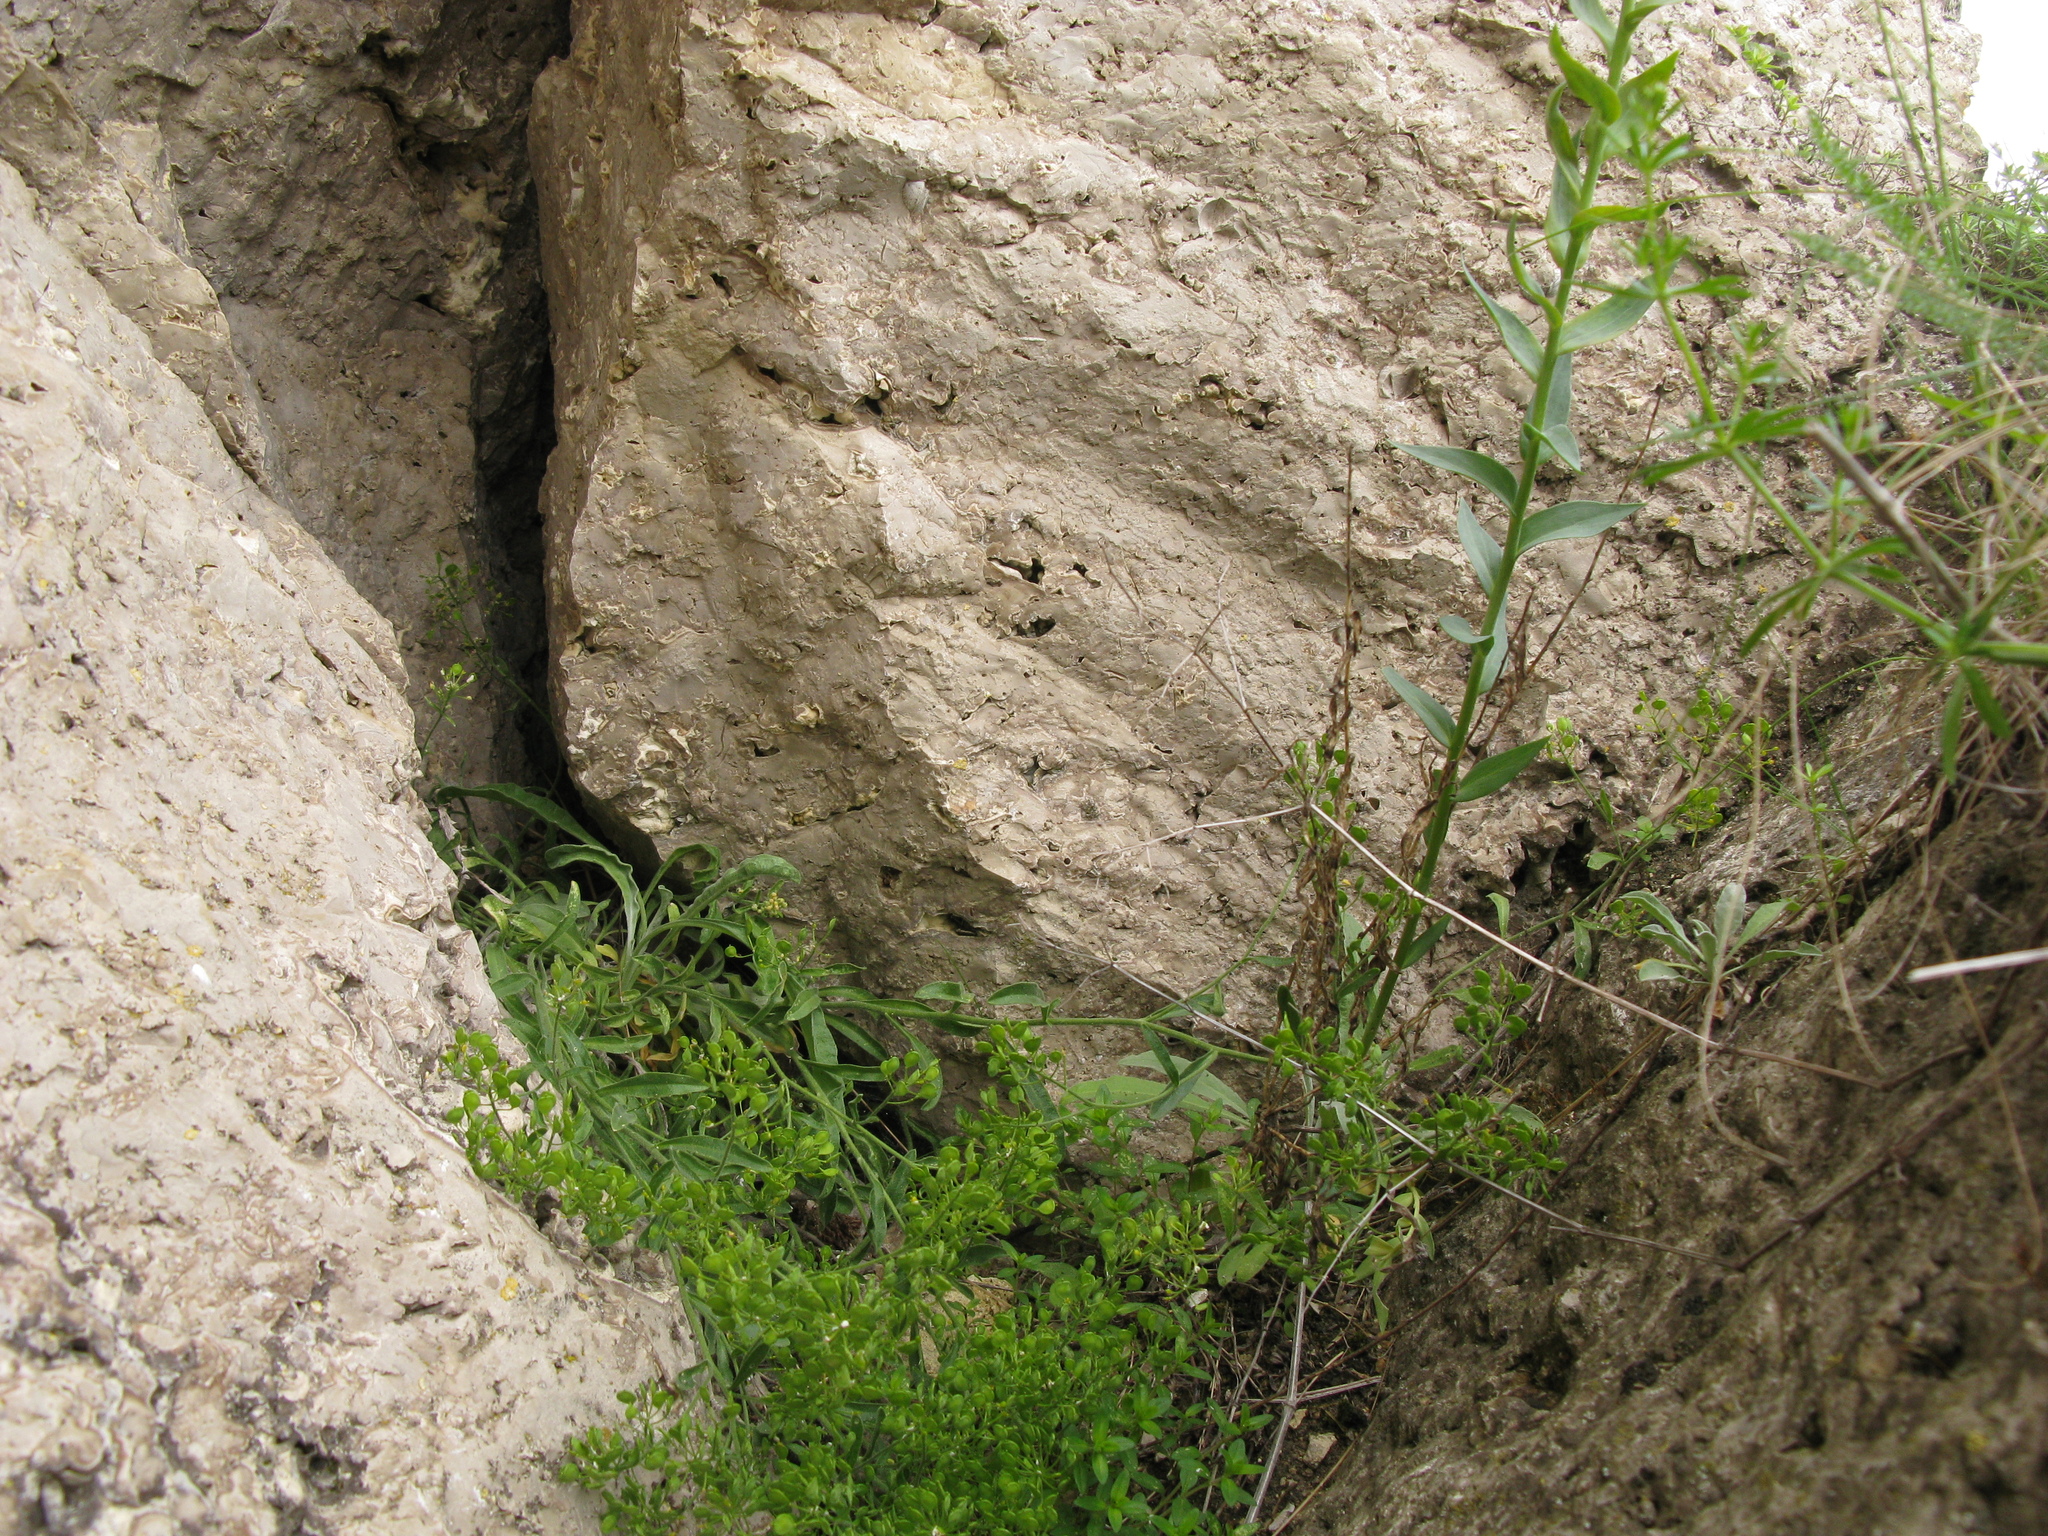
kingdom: Plantae
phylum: Tracheophyta
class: Magnoliopsida
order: Lamiales
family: Plantaginaceae
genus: Linaria
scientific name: Linaria genistifolia
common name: Broomleaf toadflax
